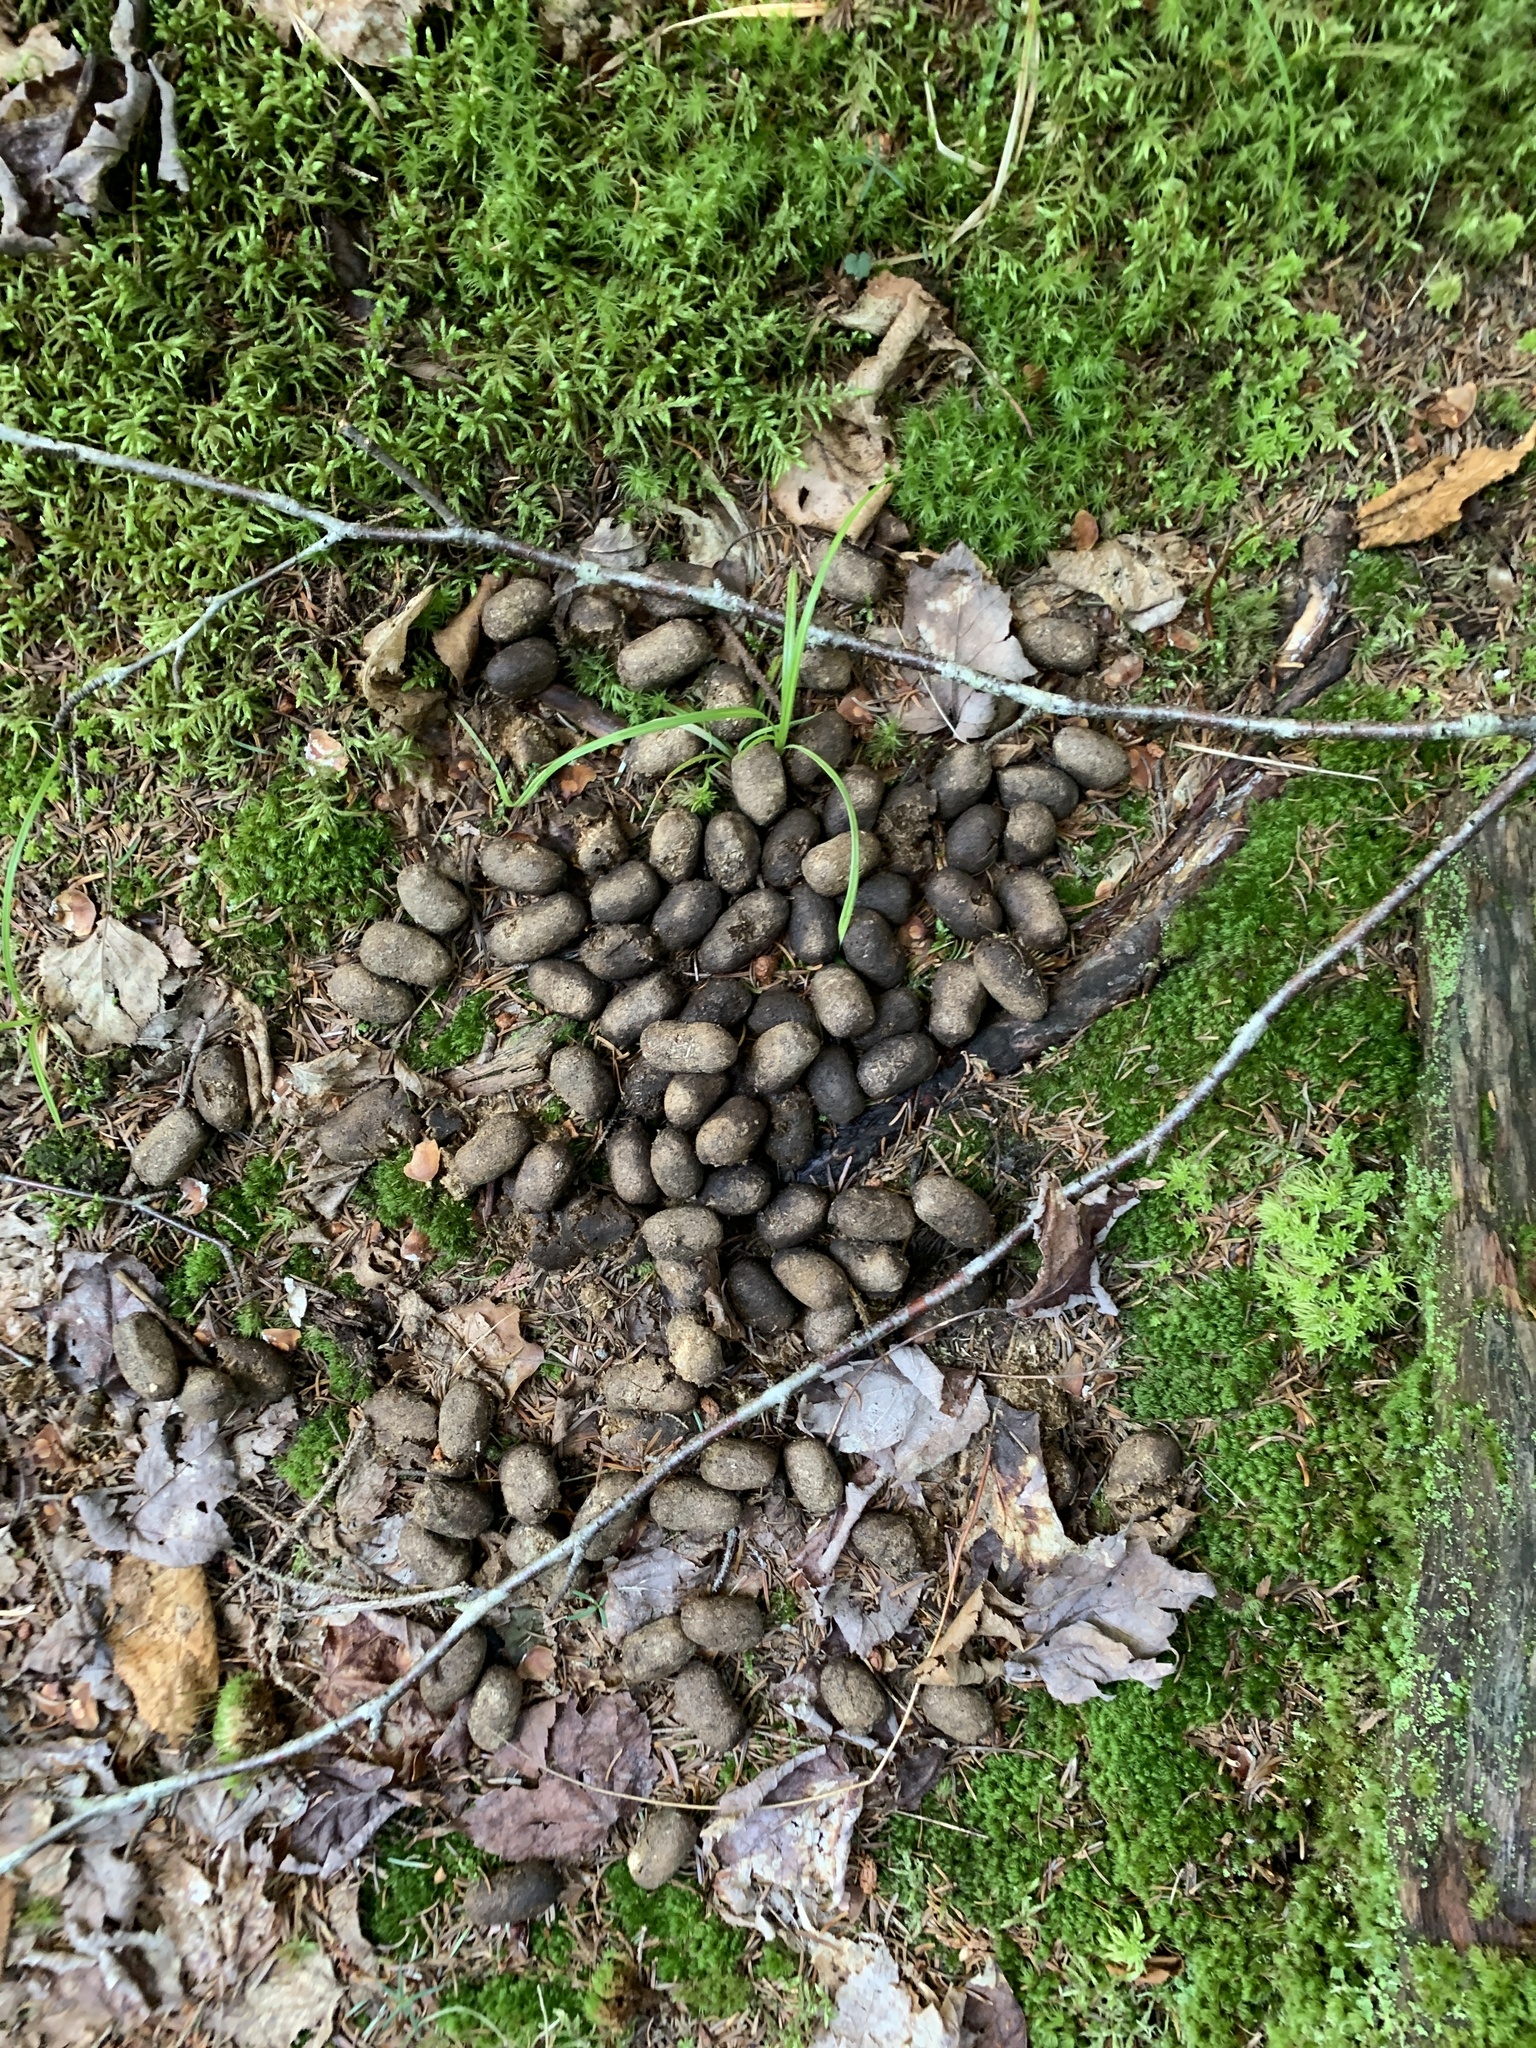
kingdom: Animalia
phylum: Chordata
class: Mammalia
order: Artiodactyla
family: Cervidae
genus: Alces
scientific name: Alces alces
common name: Moose
